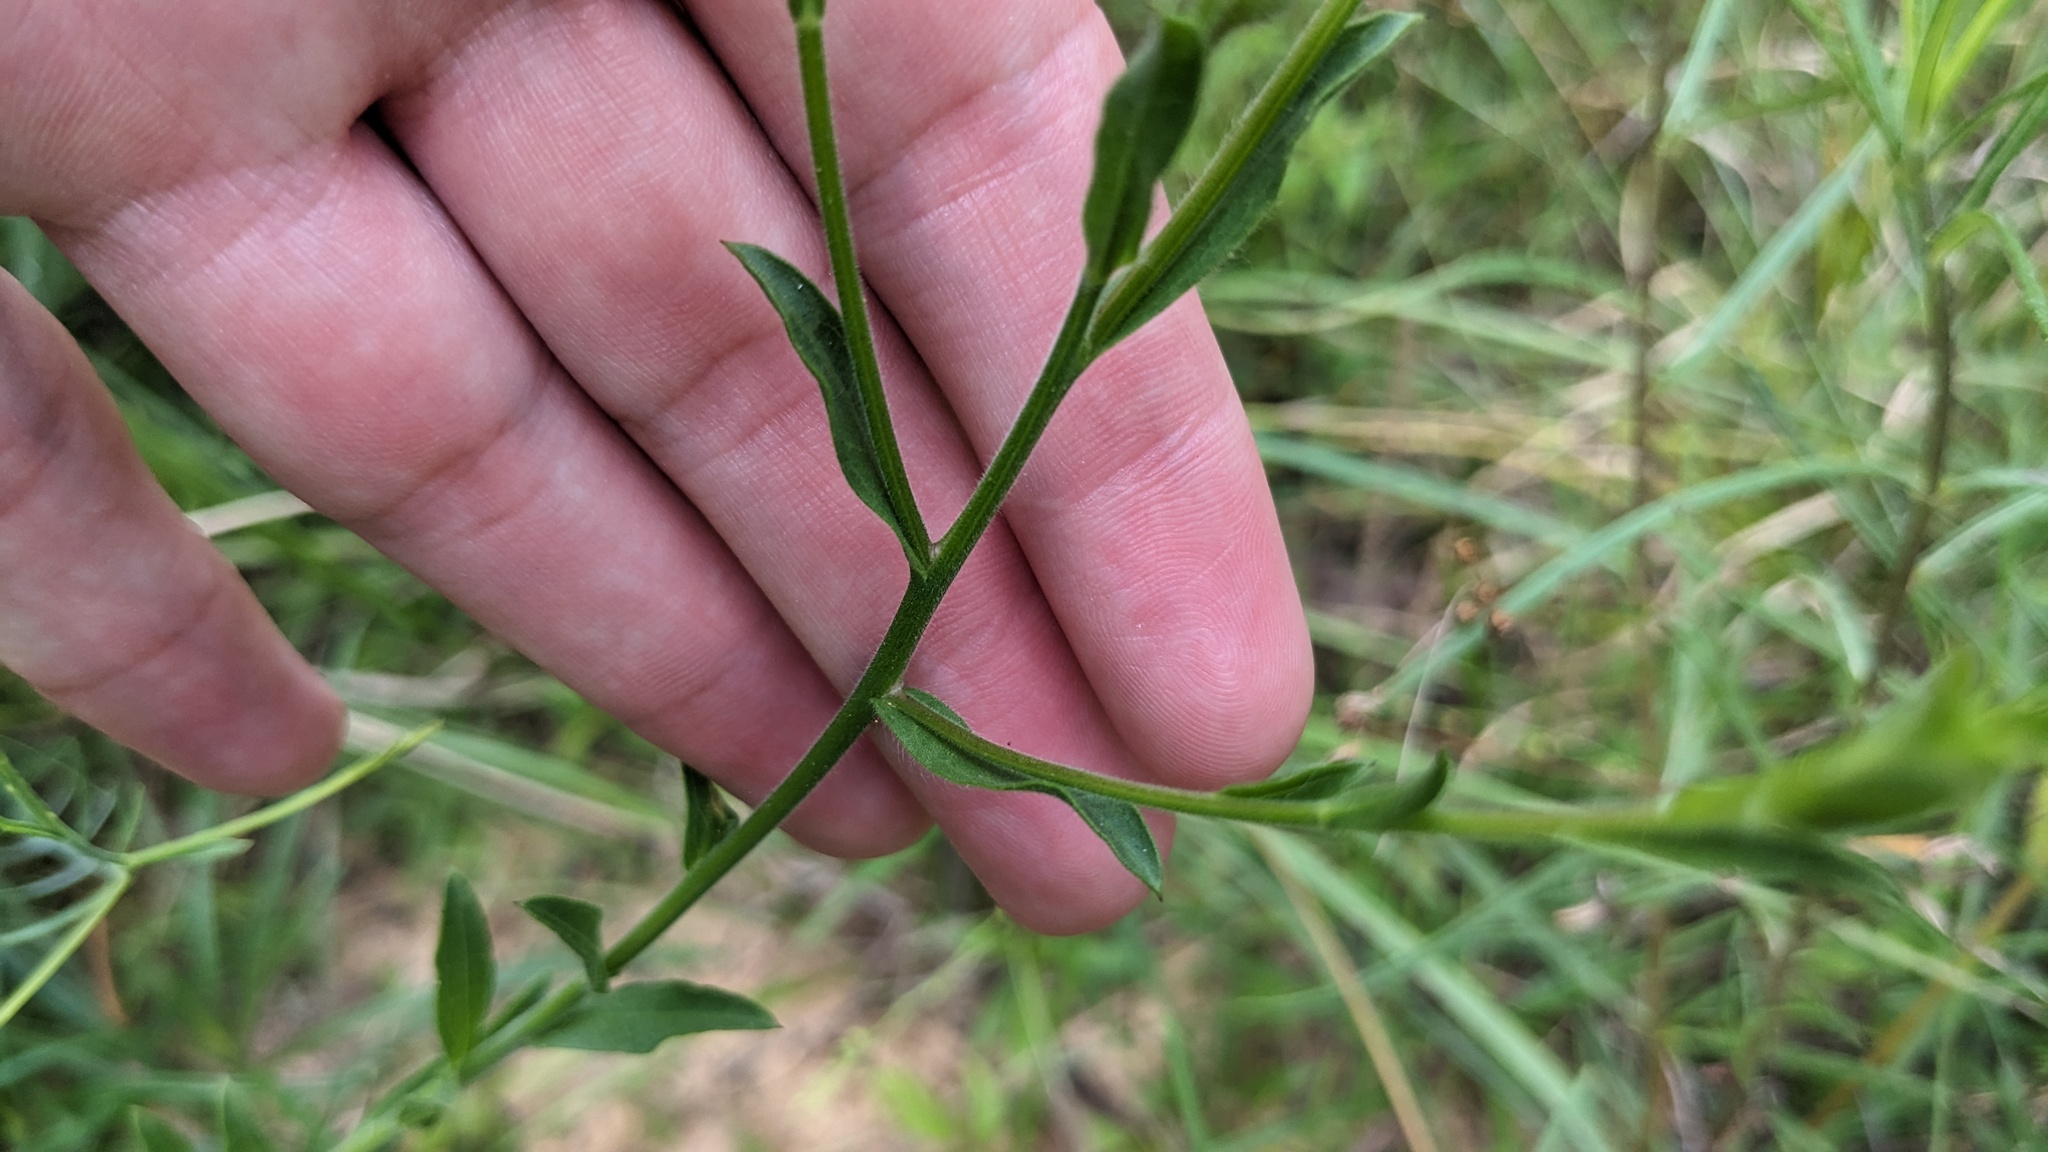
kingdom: Plantae
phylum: Tracheophyta
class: Magnoliopsida
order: Asterales
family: Asteraceae
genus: Bradburia
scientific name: Bradburia pilosa
